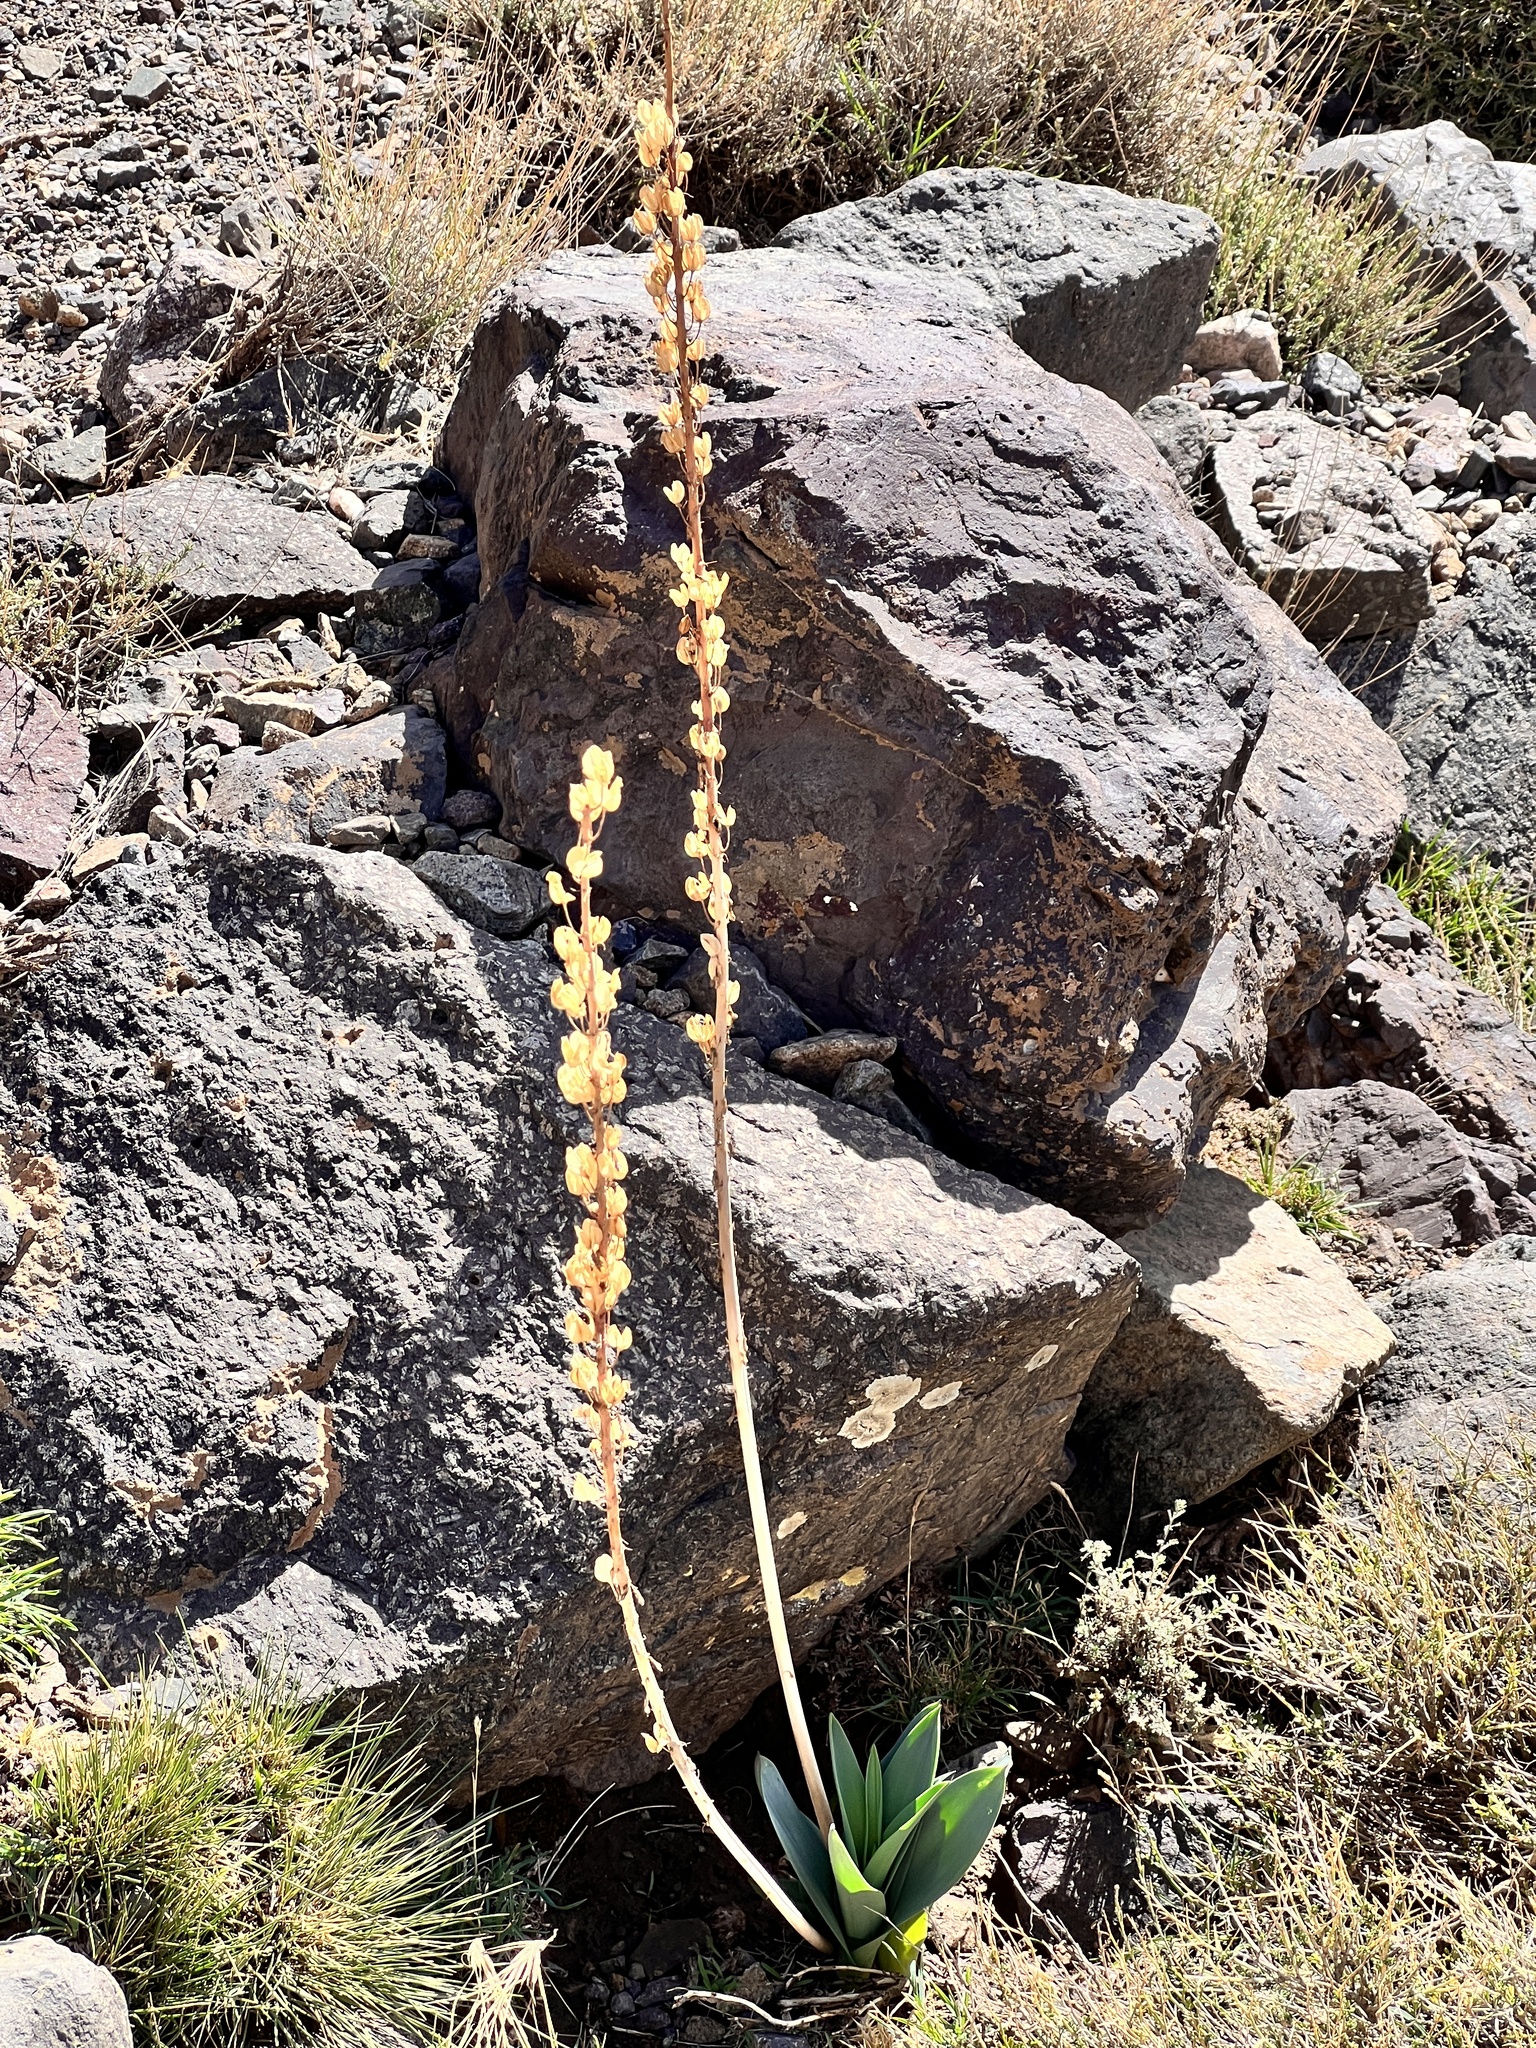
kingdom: Plantae
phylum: Tracheophyta
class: Liliopsida
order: Asparagales
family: Asparagaceae
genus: Drimia
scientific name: Drimia maura
